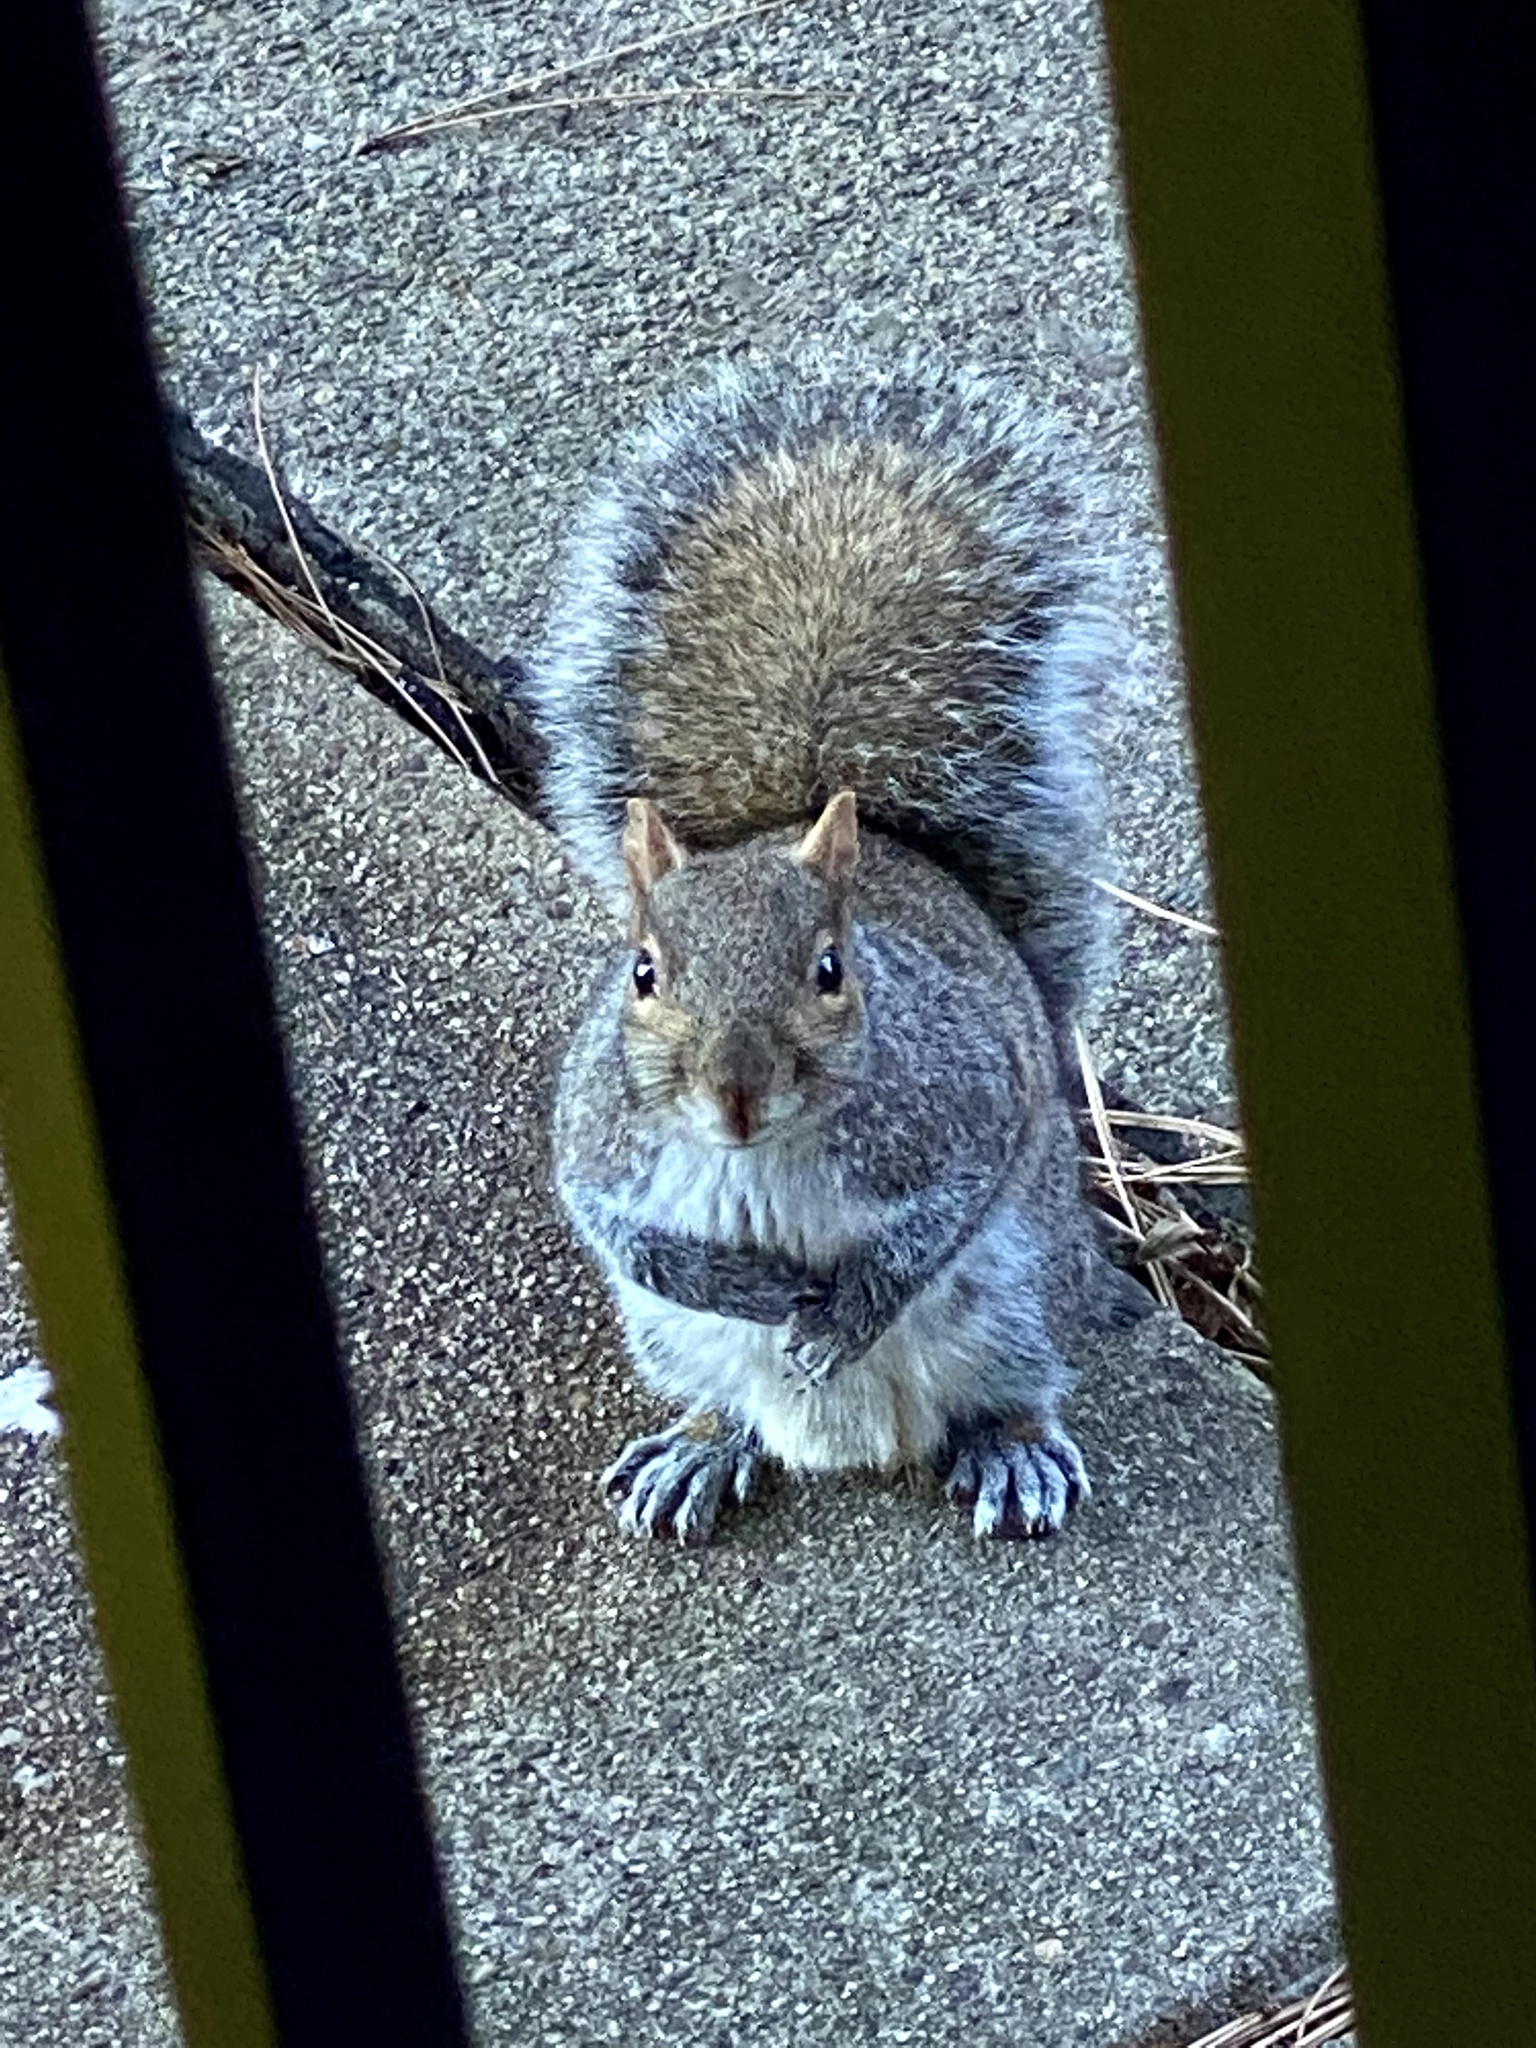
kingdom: Animalia
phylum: Chordata
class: Mammalia
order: Rodentia
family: Sciuridae
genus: Sciurus
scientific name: Sciurus carolinensis
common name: Eastern gray squirrel
